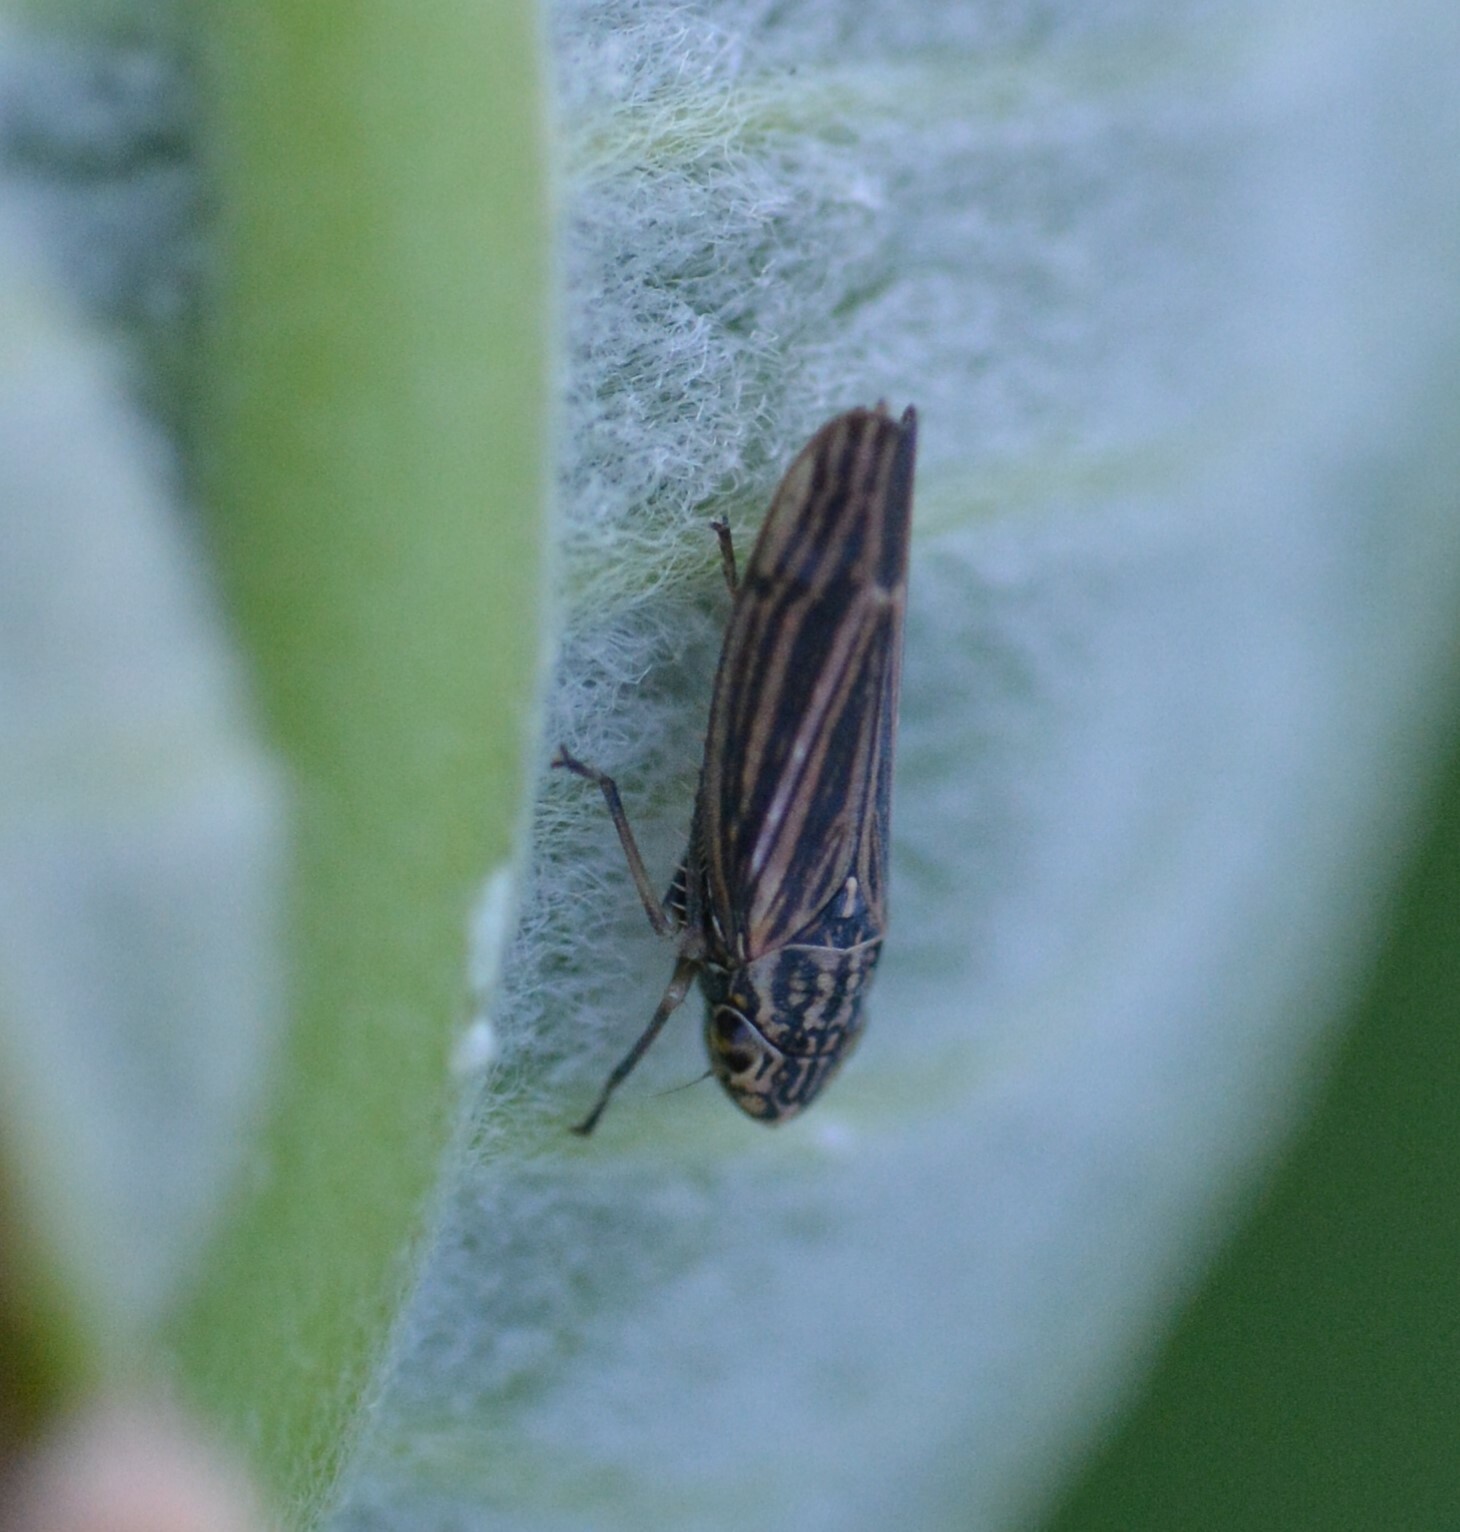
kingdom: Animalia
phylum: Arthropoda
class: Insecta
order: Hemiptera
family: Cicadellidae
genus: Neokolla
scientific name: Neokolla hieroglyphica
